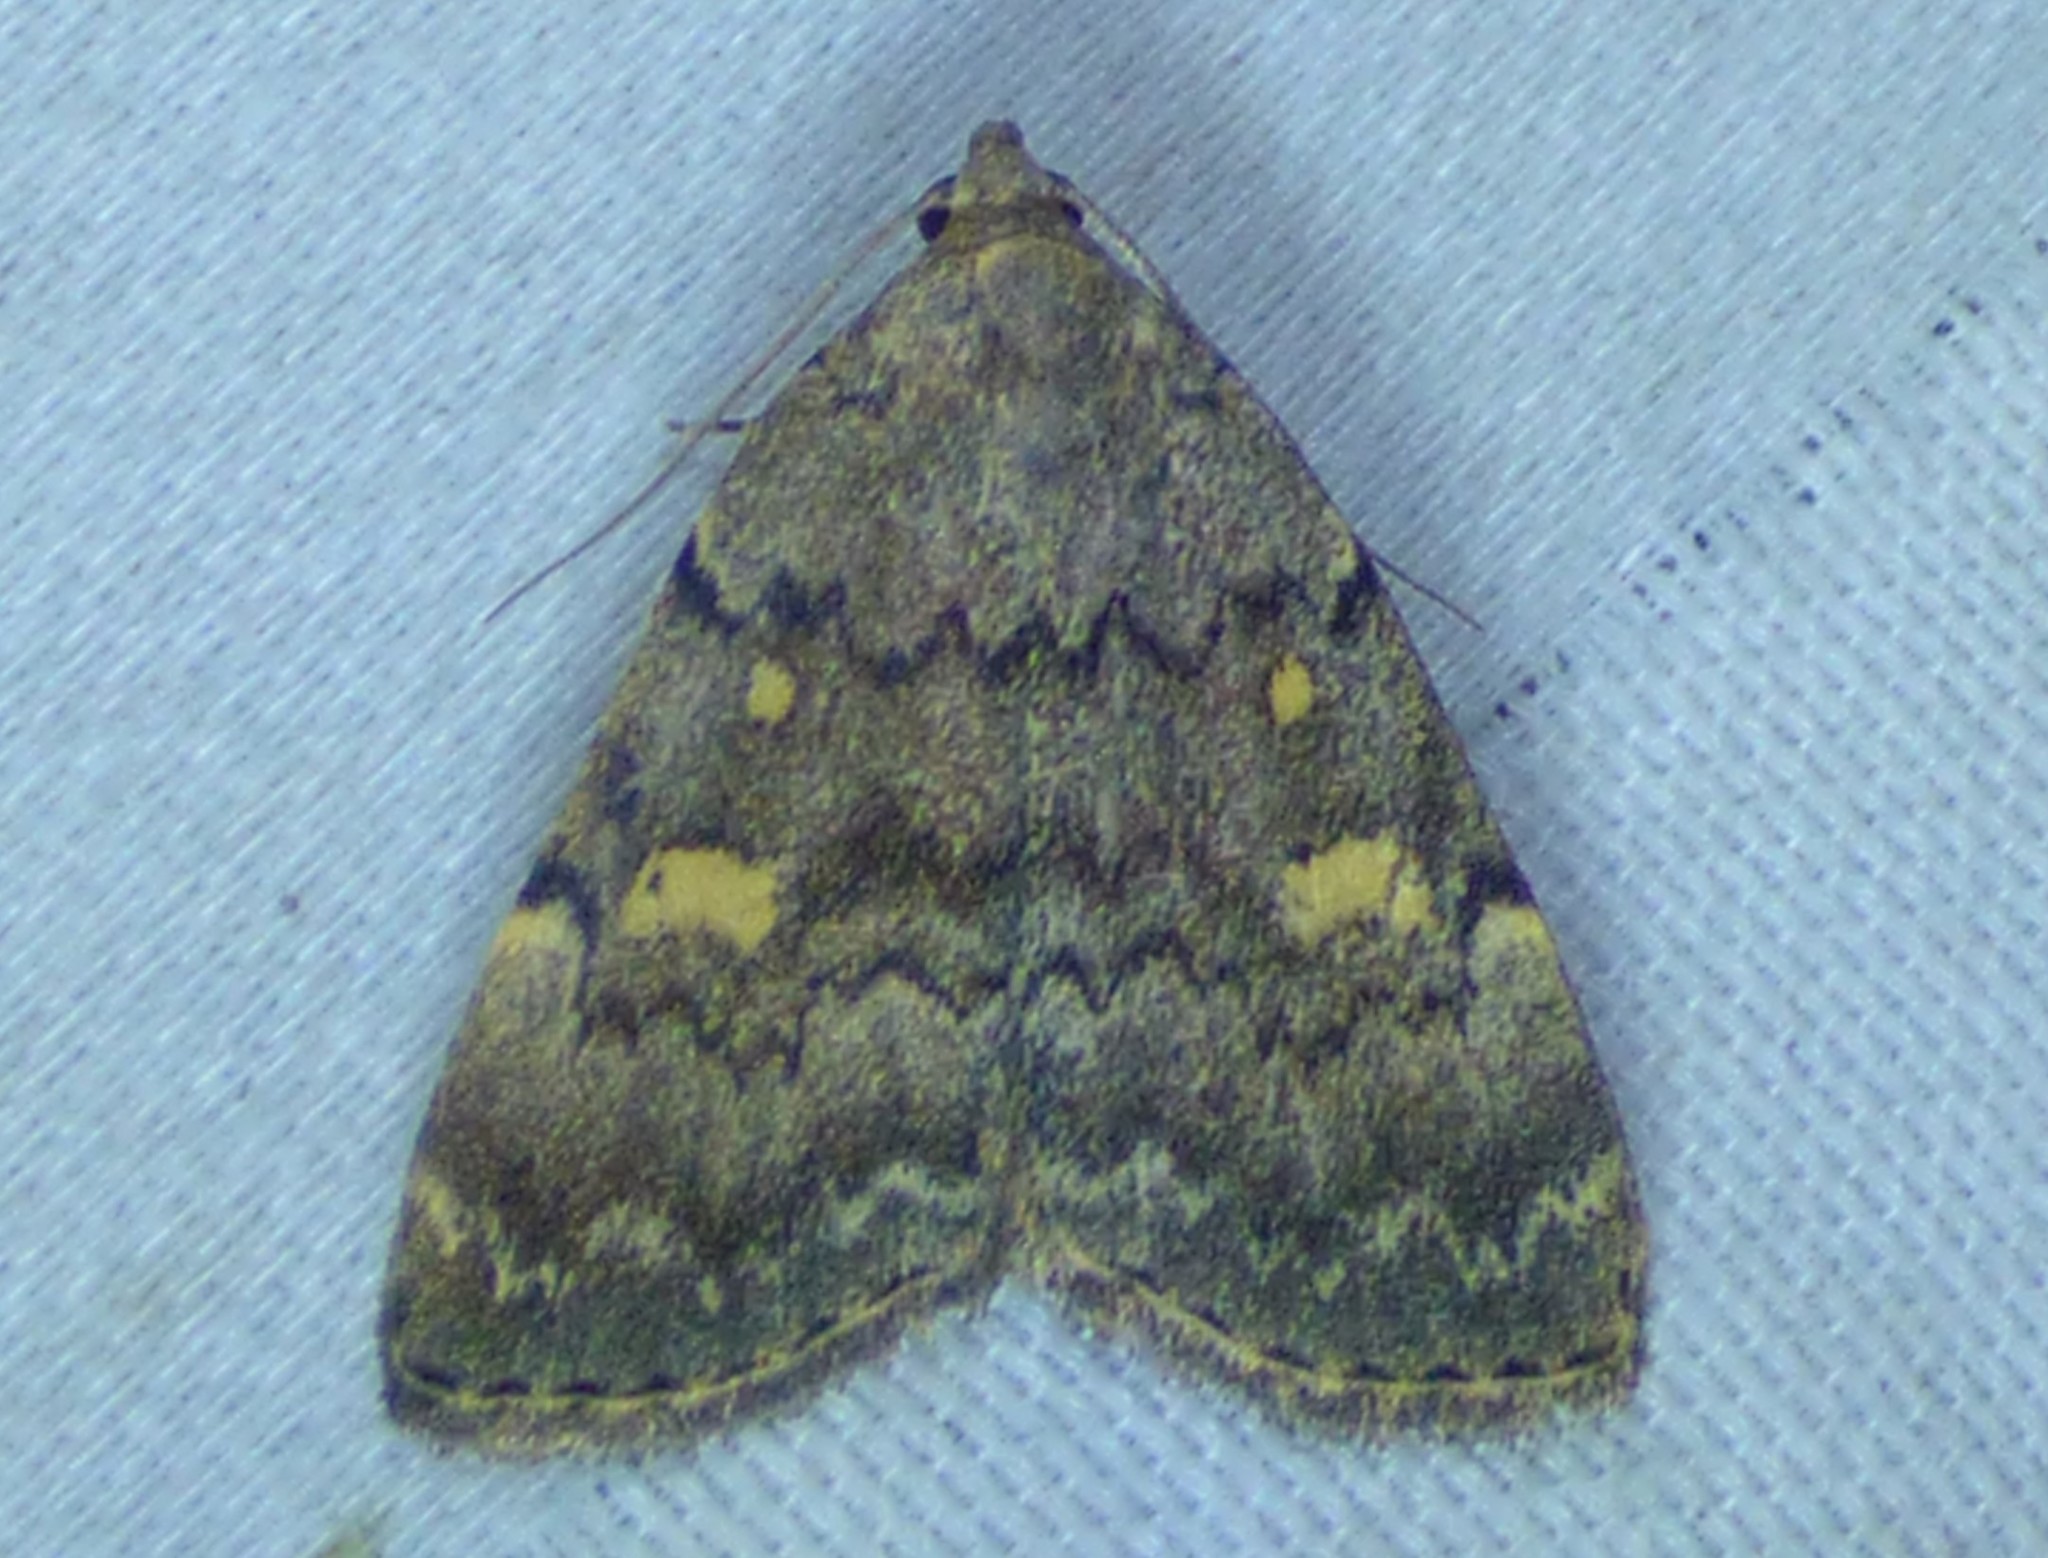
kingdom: Animalia
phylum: Arthropoda
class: Insecta
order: Lepidoptera
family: Erebidae
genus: Idia
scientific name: Idia aemula
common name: Common idia moth
